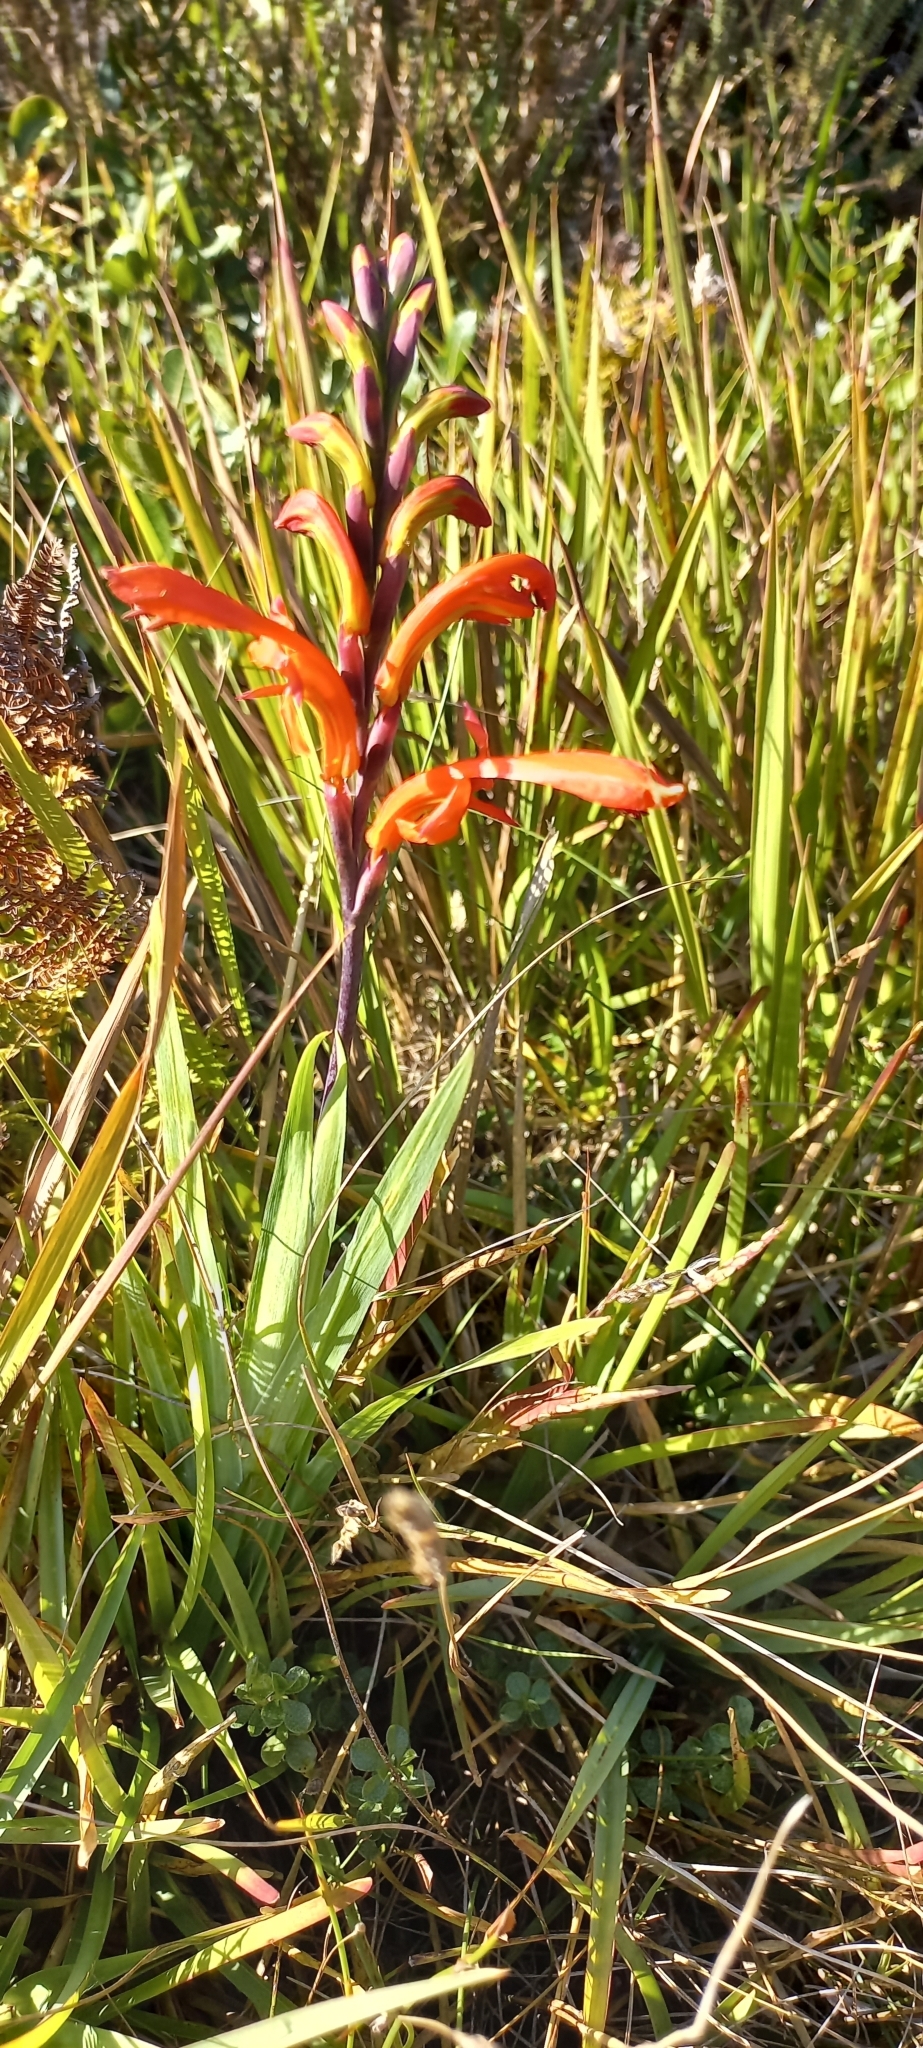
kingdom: Plantae
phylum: Tracheophyta
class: Liliopsida
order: Asparagales
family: Iridaceae
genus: Chasmanthe
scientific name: Chasmanthe aethiopica
